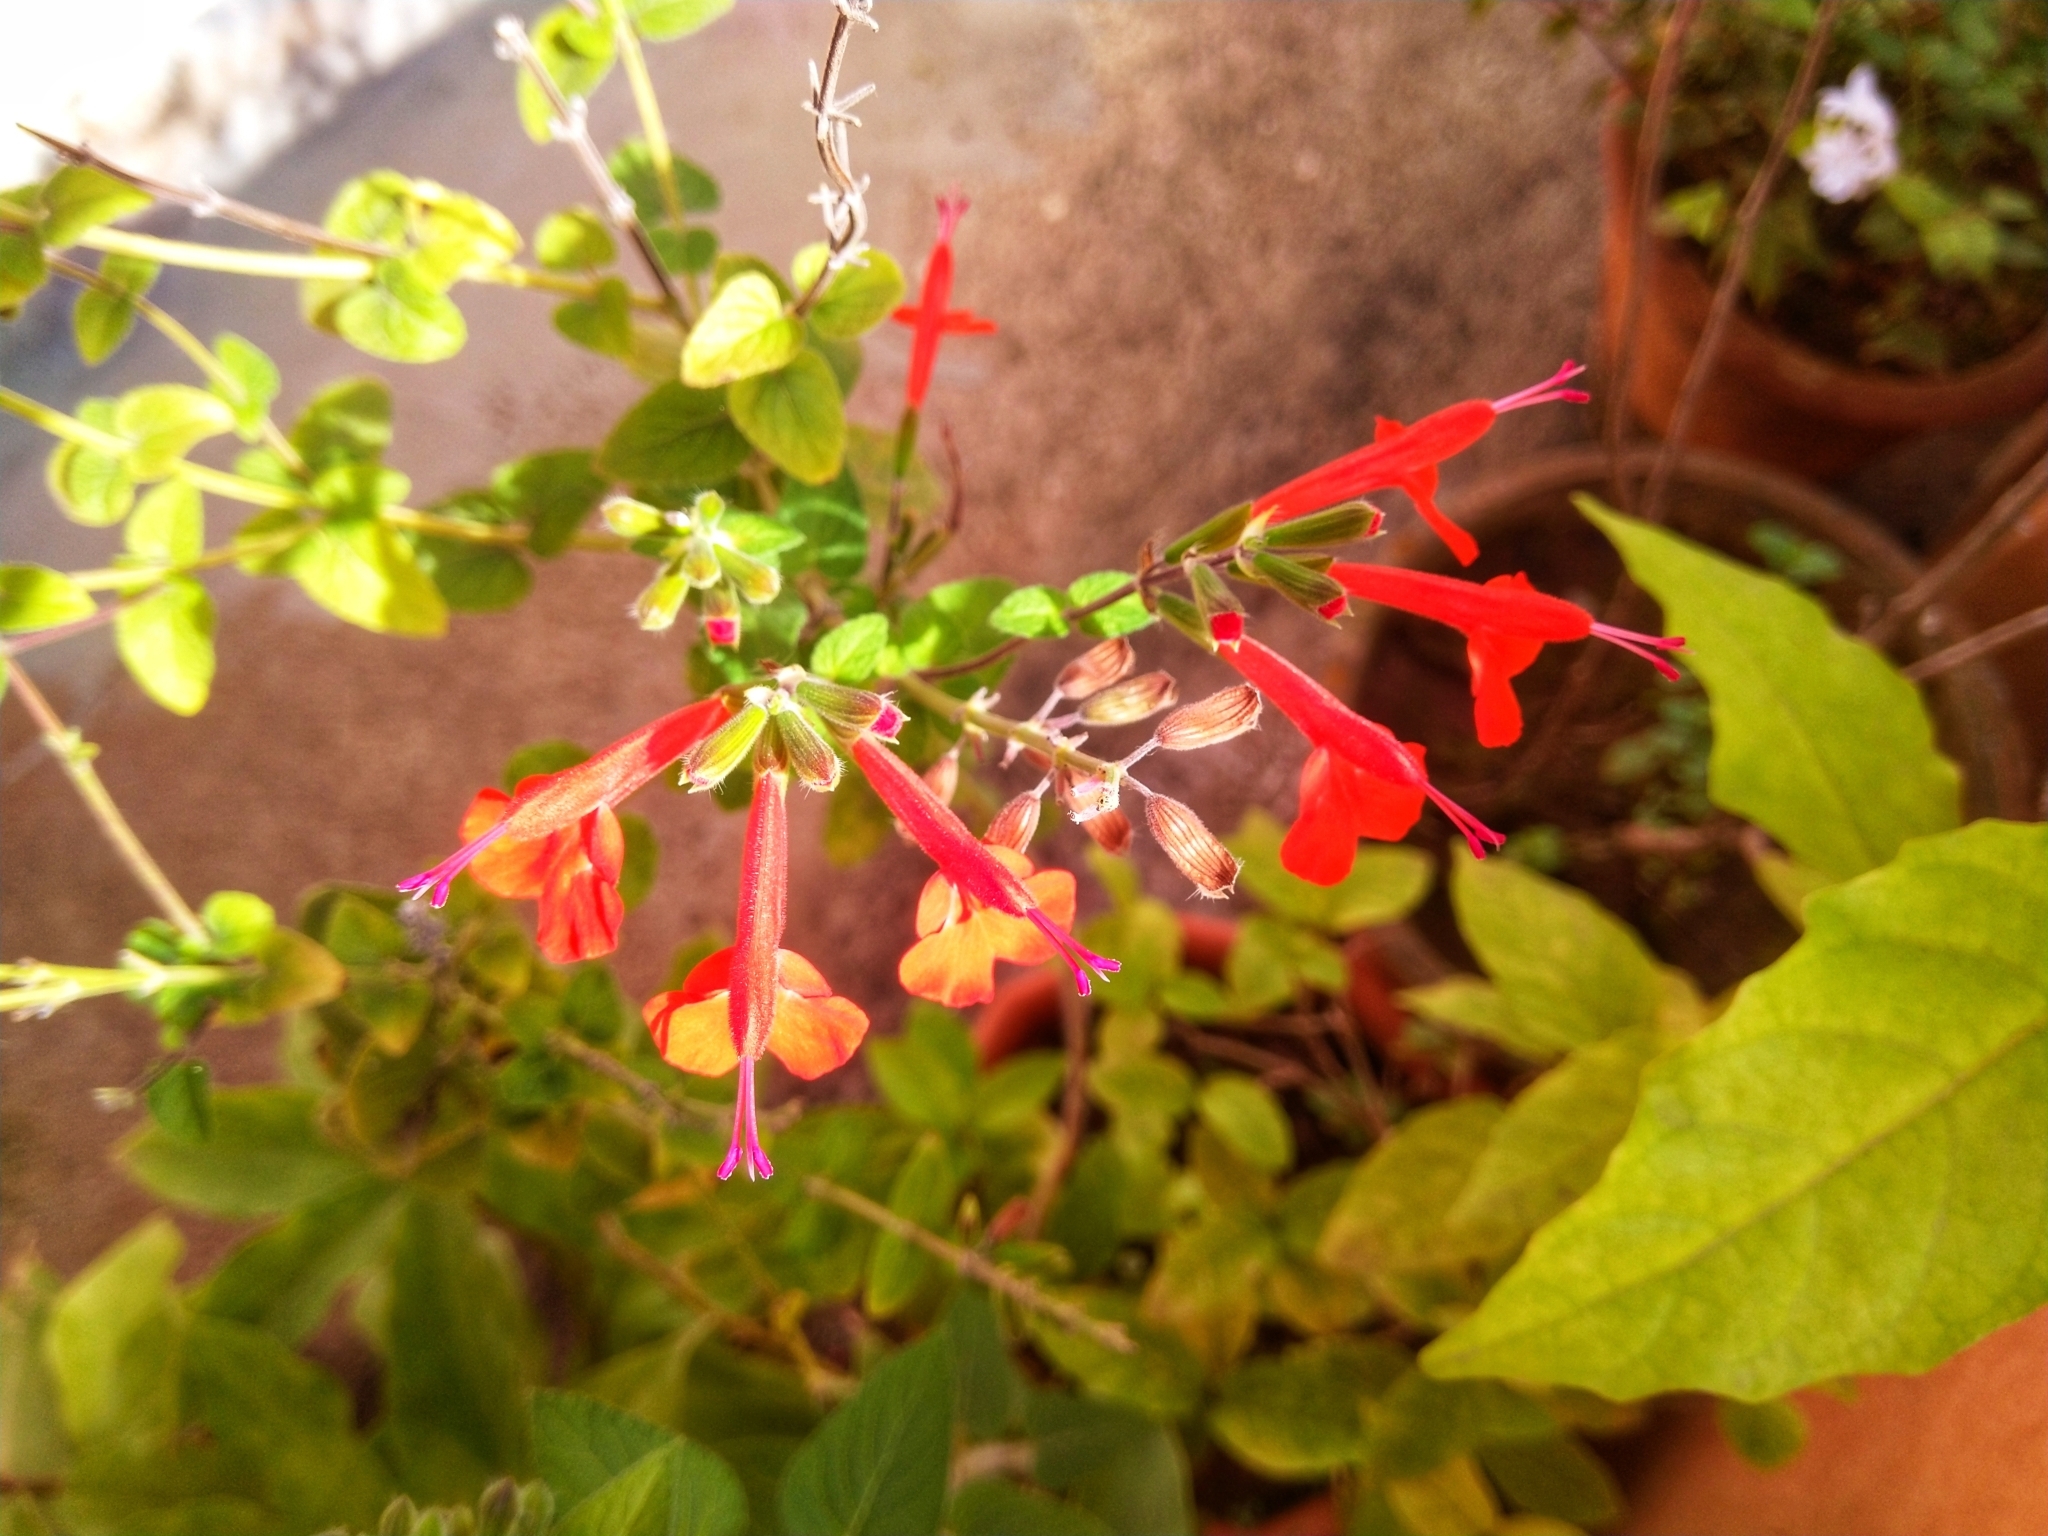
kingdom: Plantae
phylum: Tracheophyta
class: Magnoliopsida
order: Lamiales
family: Lamiaceae
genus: Salvia
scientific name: Salvia coccinea
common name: Blood sage
